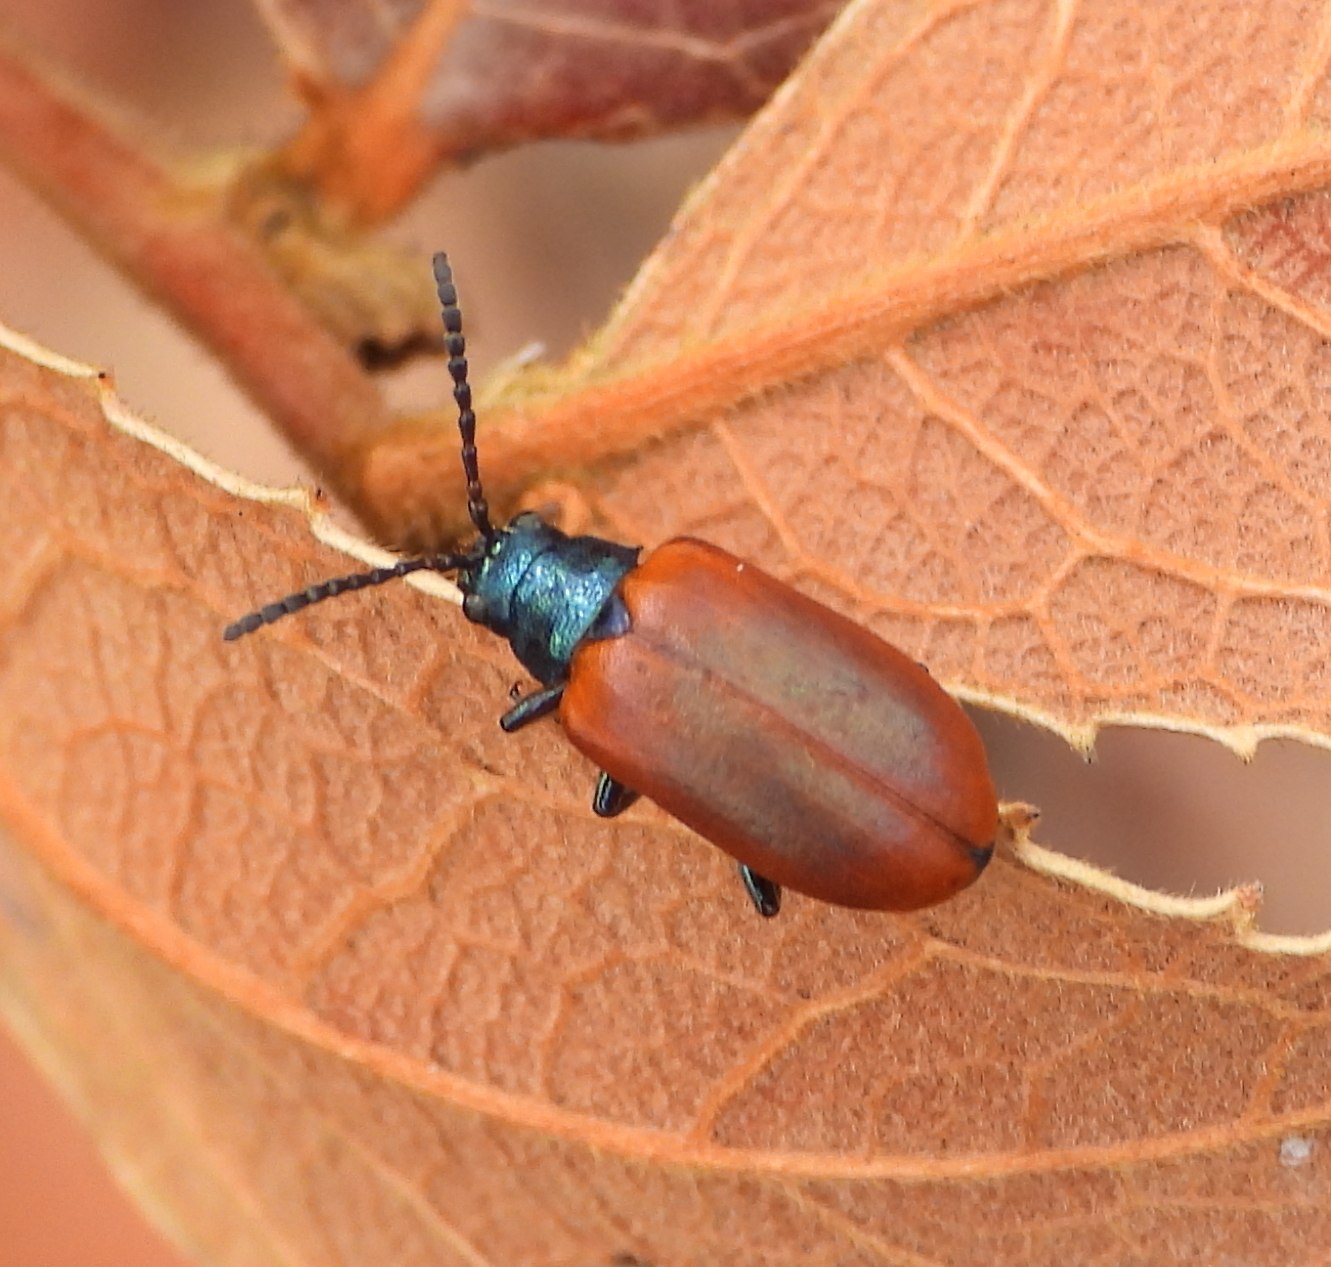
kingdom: Animalia
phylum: Arthropoda
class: Insecta
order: Coleoptera
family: Chrysomelidae
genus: Porphytoma
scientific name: Porphytoma
